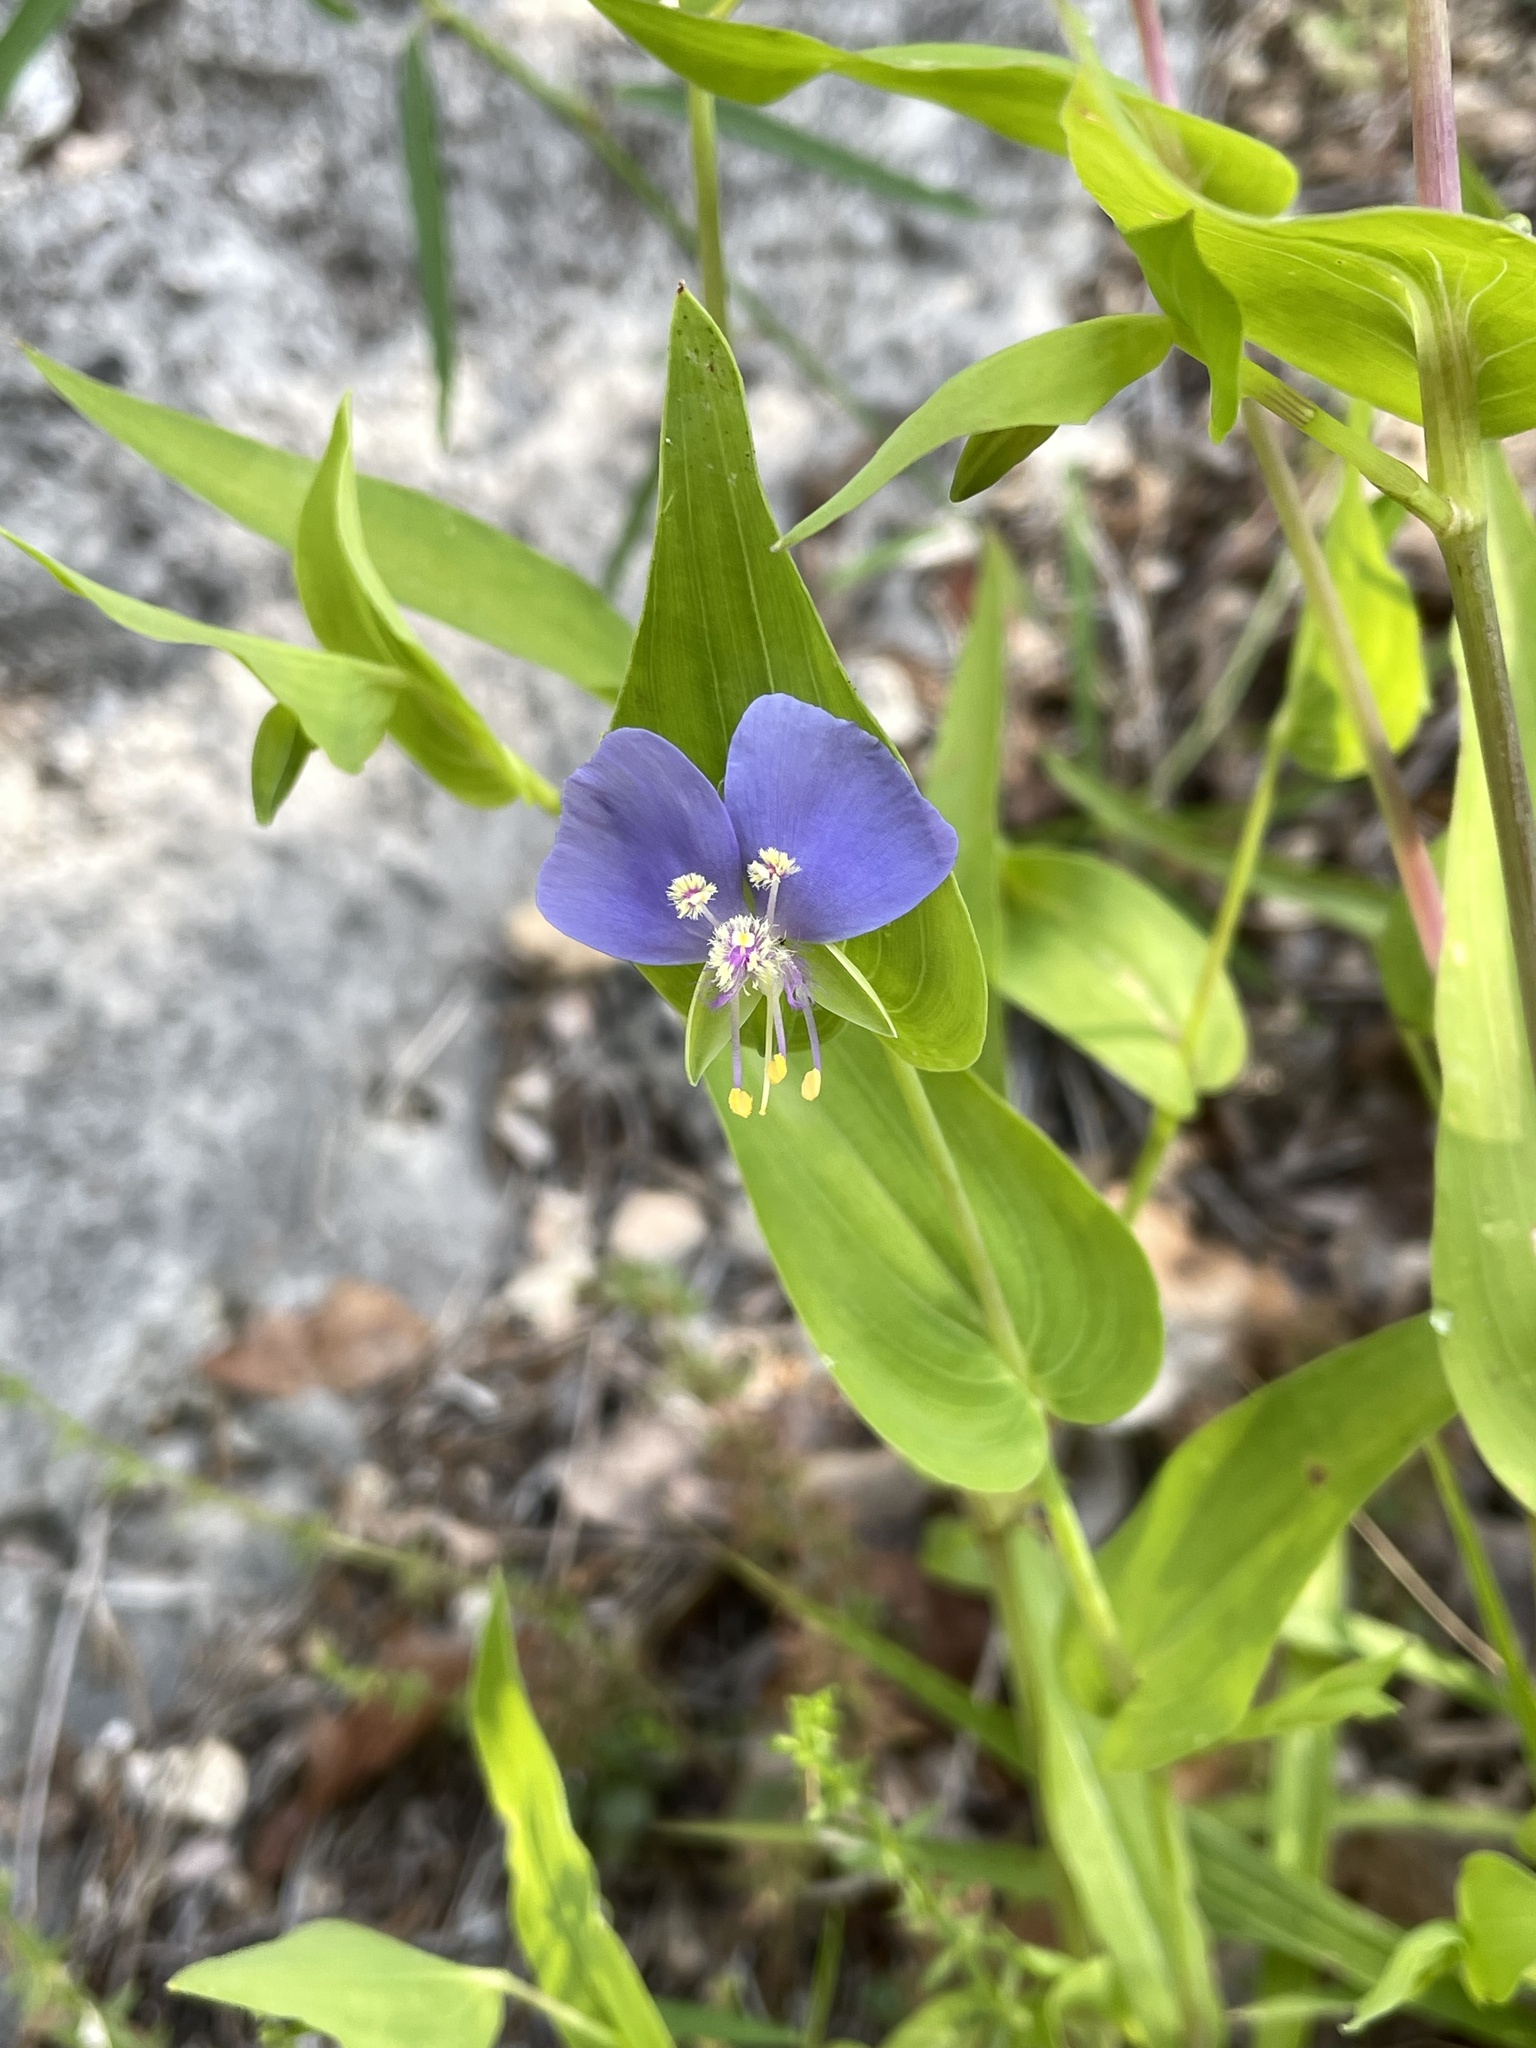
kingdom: Plantae
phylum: Tracheophyta
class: Liliopsida
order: Commelinales
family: Commelinaceae
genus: Tinantia
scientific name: Tinantia anomala
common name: False dayflower
